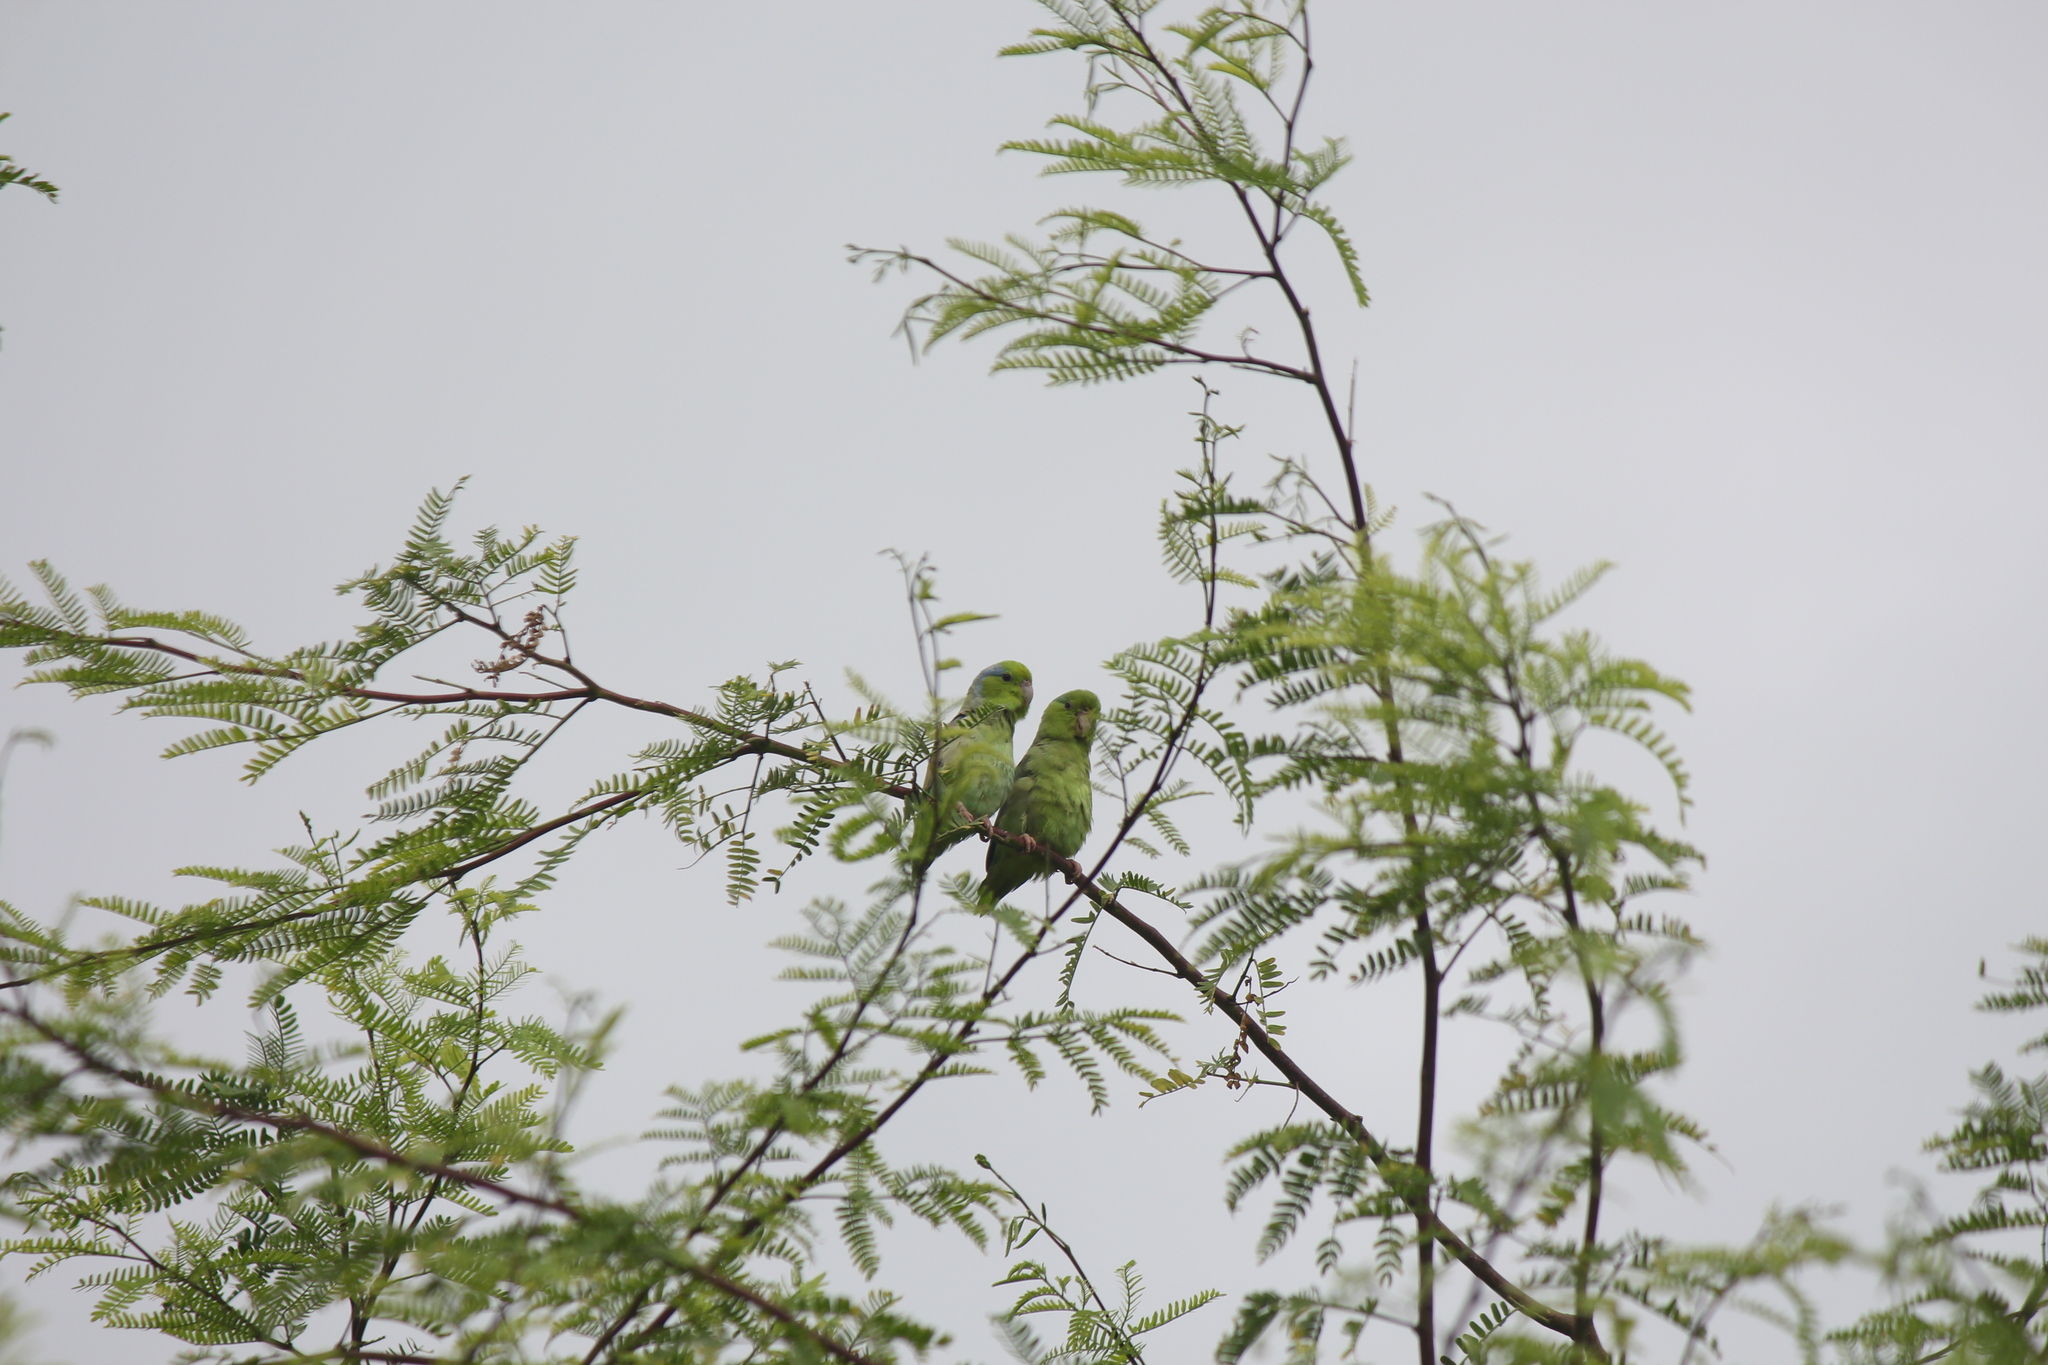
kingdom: Animalia
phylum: Chordata
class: Aves
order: Psittaciformes
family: Psittacidae
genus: Forpus
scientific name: Forpus coelestis
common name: Pacific parrotlet
